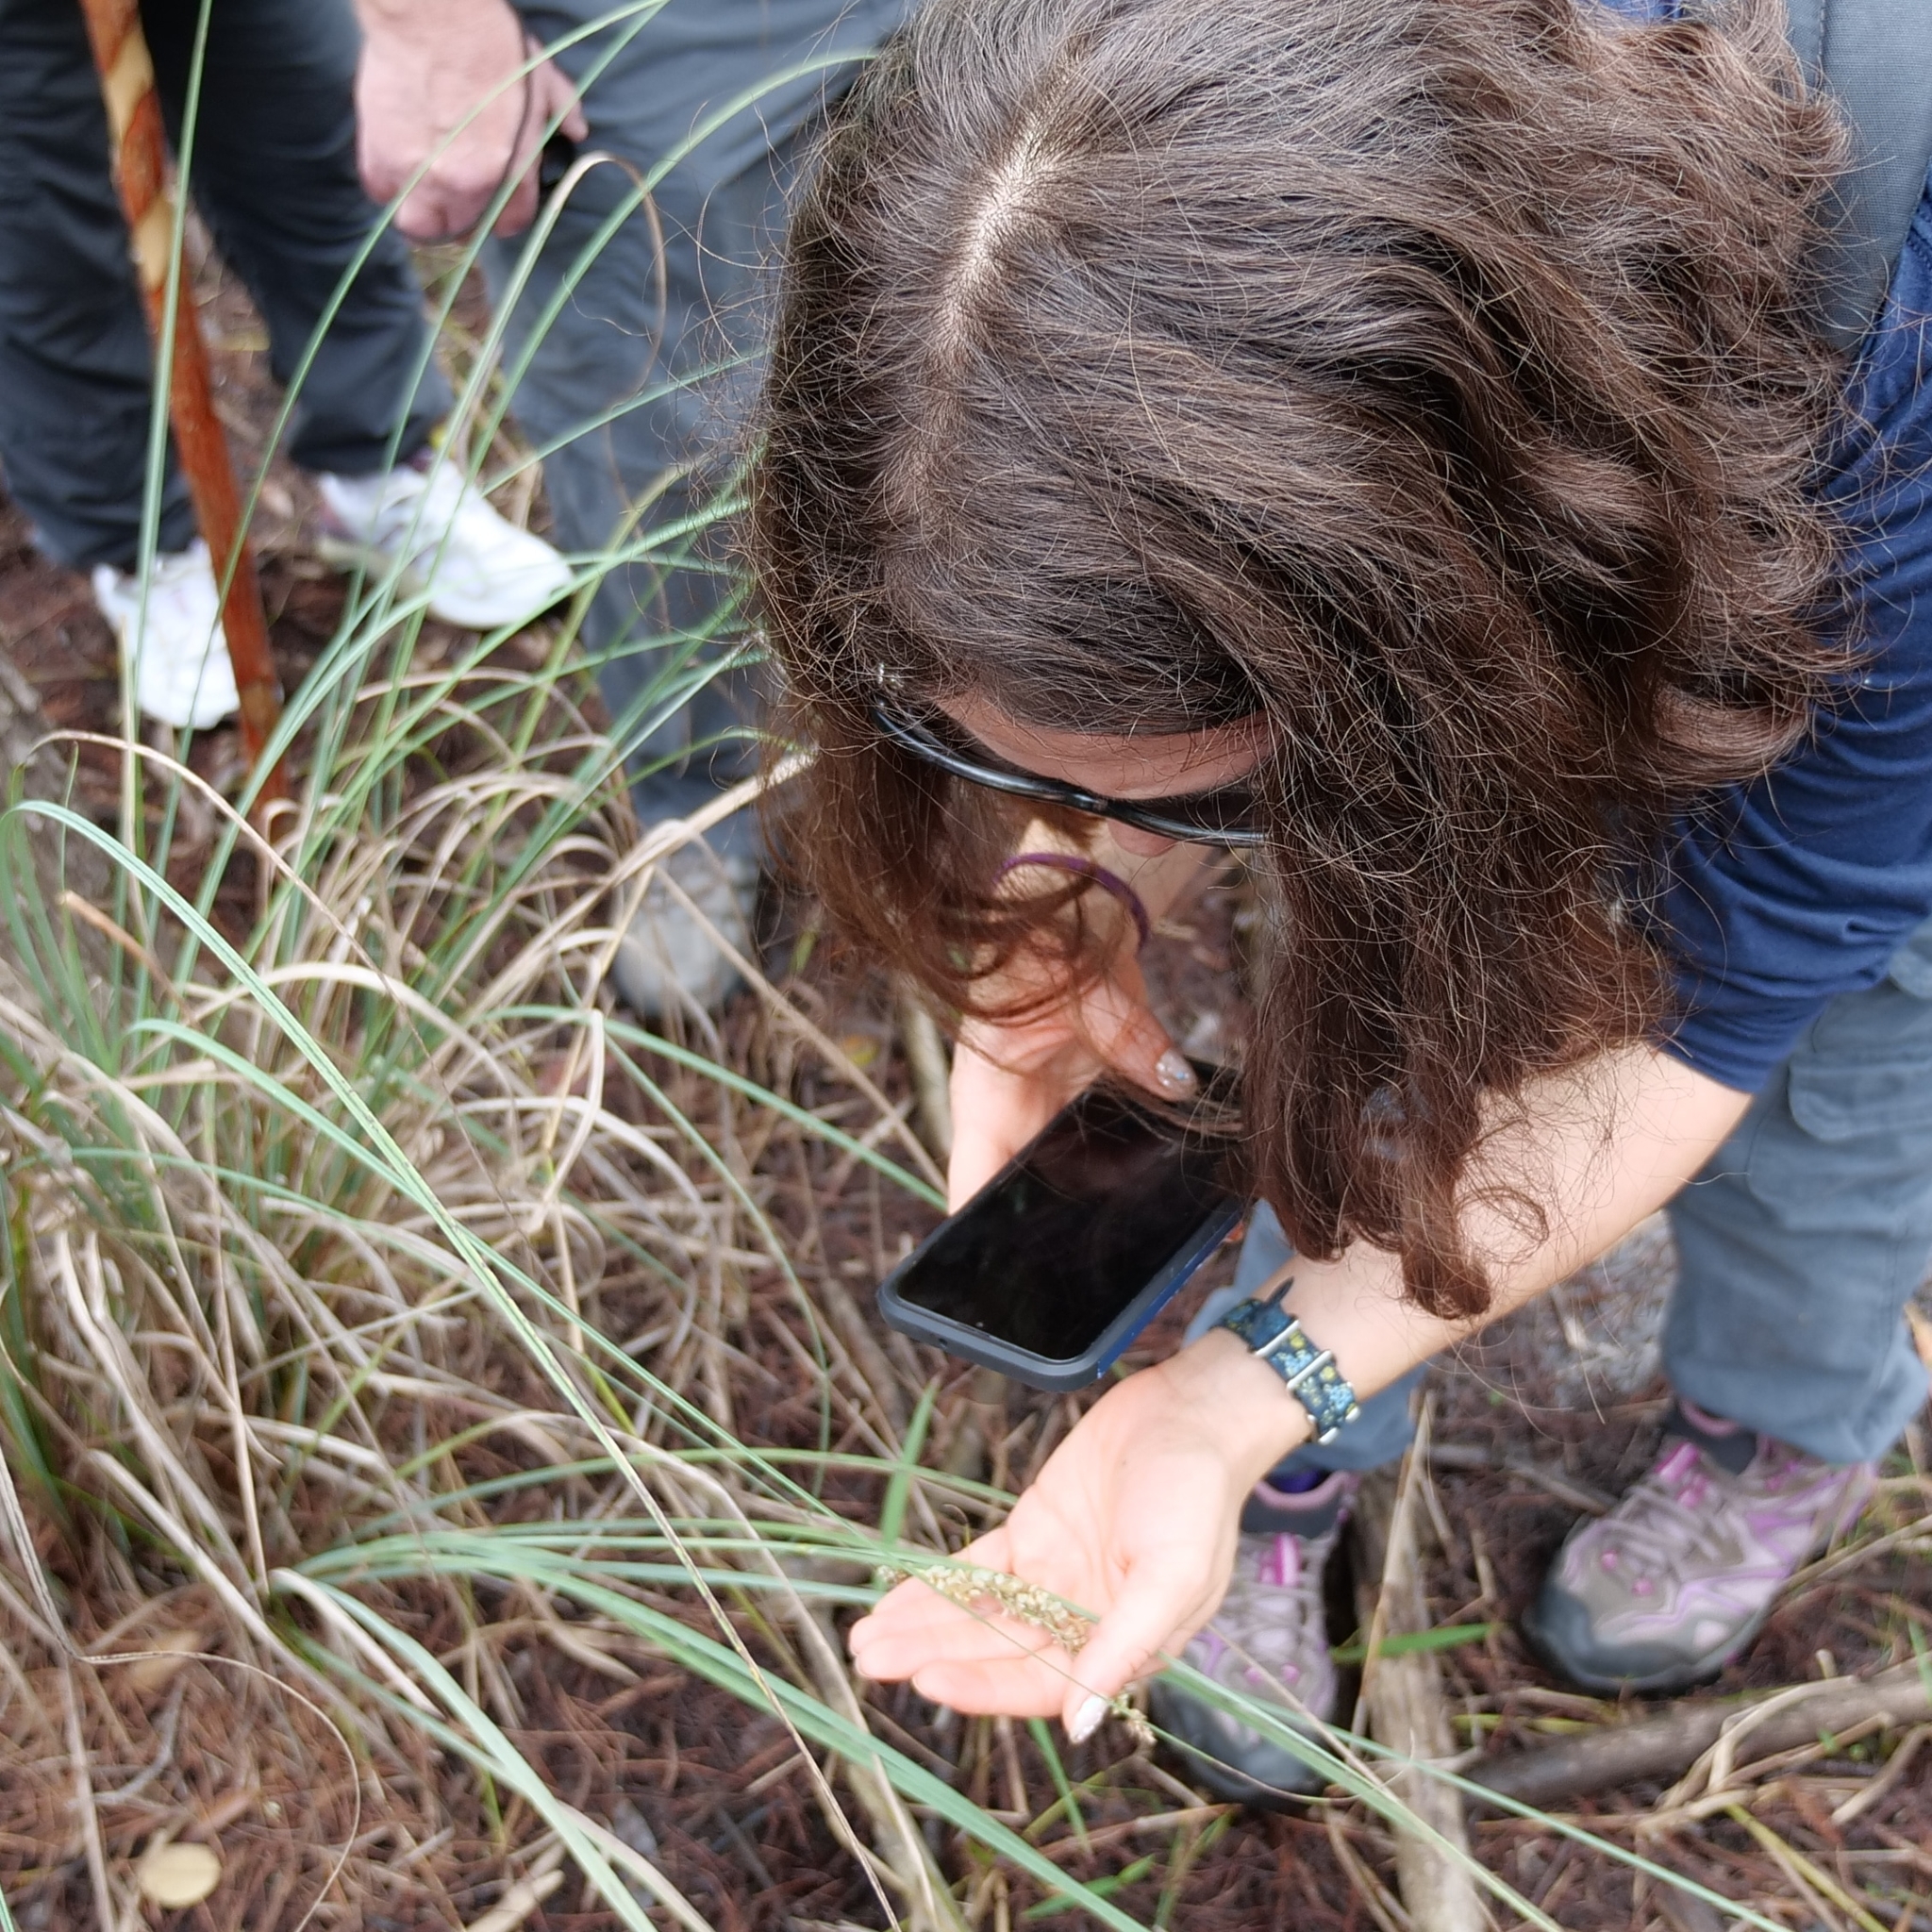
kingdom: Plantae
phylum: Tracheophyta
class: Liliopsida
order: Poales
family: Cyperaceae
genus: Carex
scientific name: Carex verrucosa
